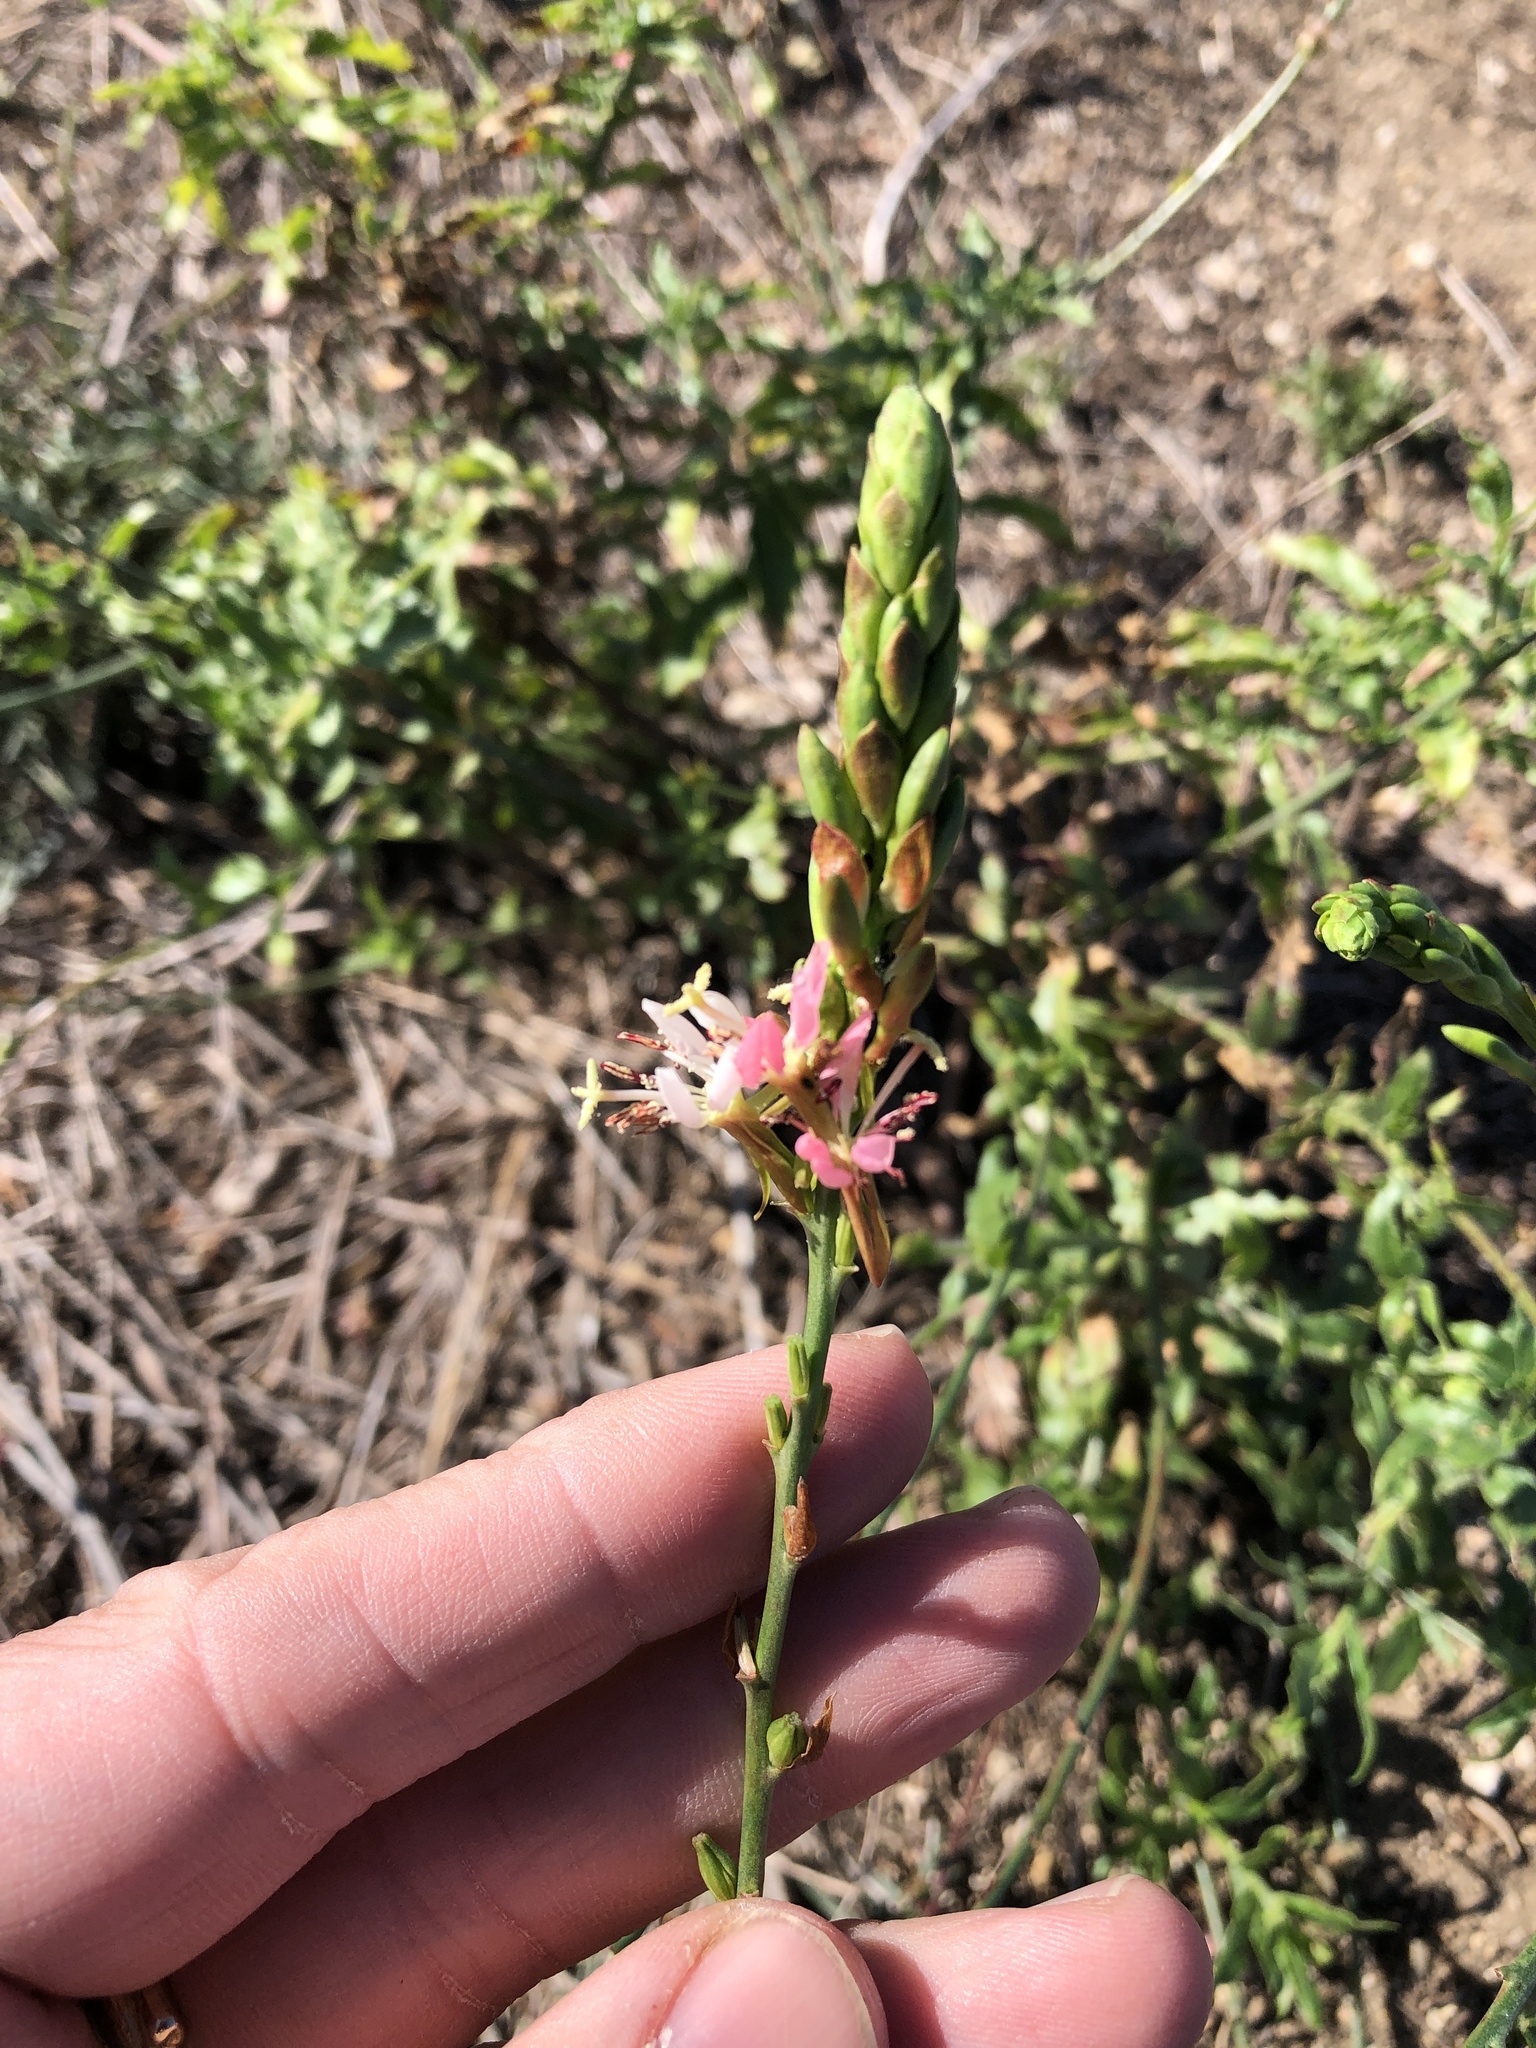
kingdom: Plantae
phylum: Tracheophyta
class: Magnoliopsida
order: Myrtales
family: Onagraceae
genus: Oenothera
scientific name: Oenothera suffulta
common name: Kisses
